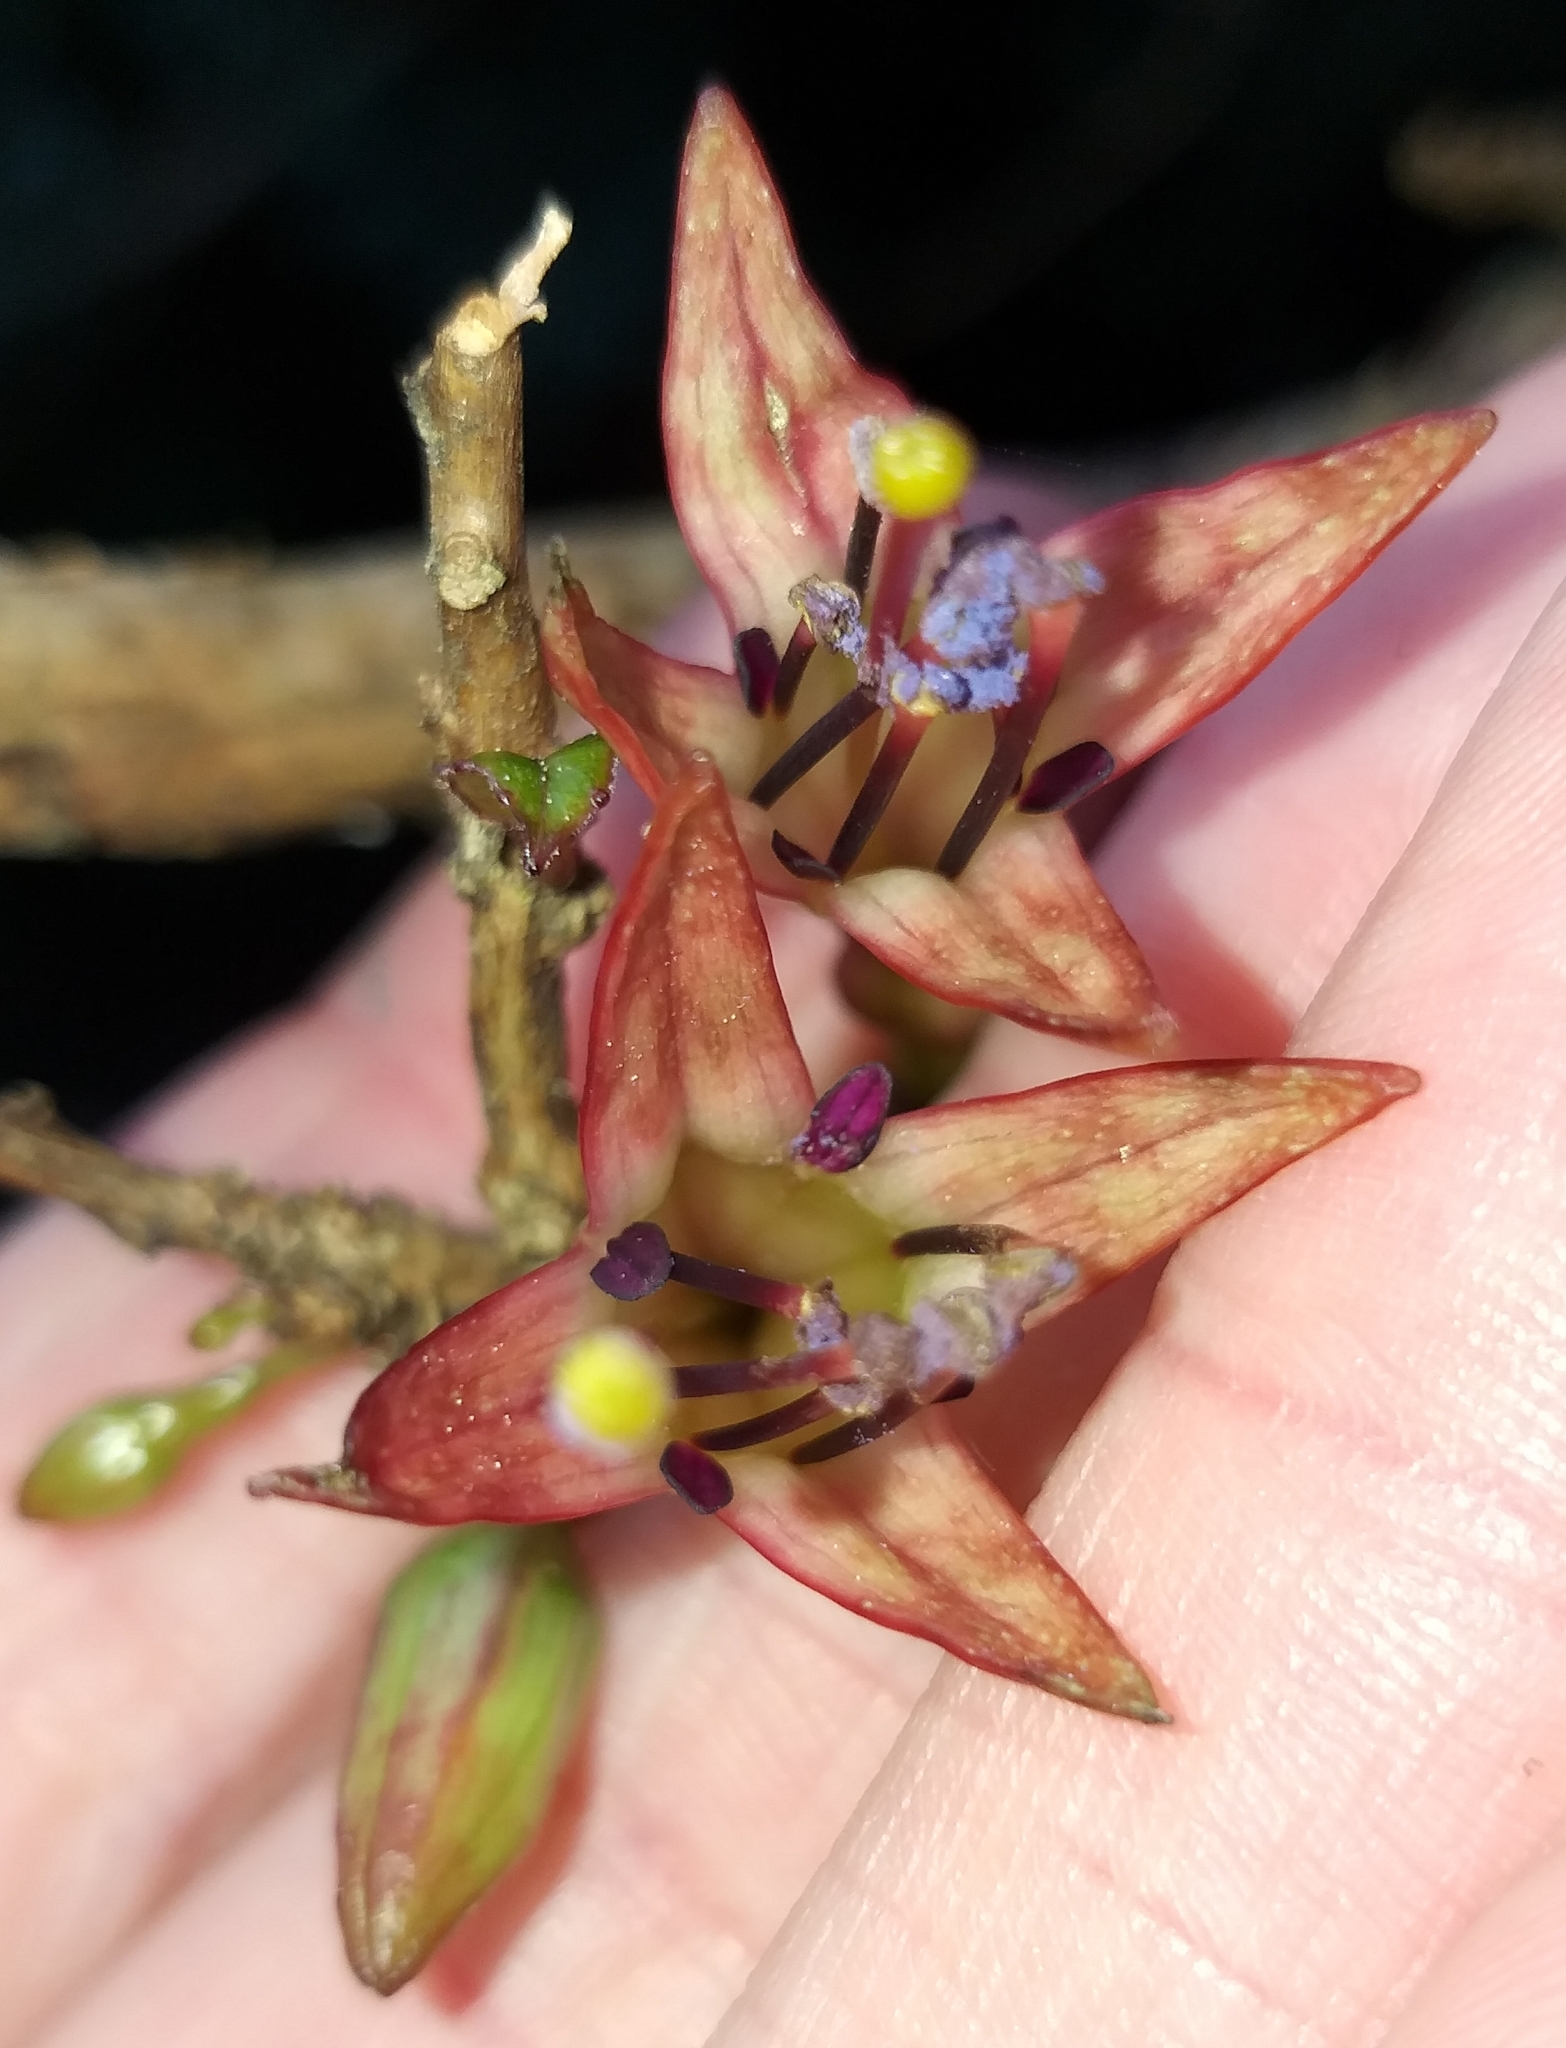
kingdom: Plantae
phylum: Tracheophyta
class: Magnoliopsida
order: Myrtales
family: Onagraceae
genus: Fuchsia
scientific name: Fuchsia excorticata
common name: Tree fuchsia
